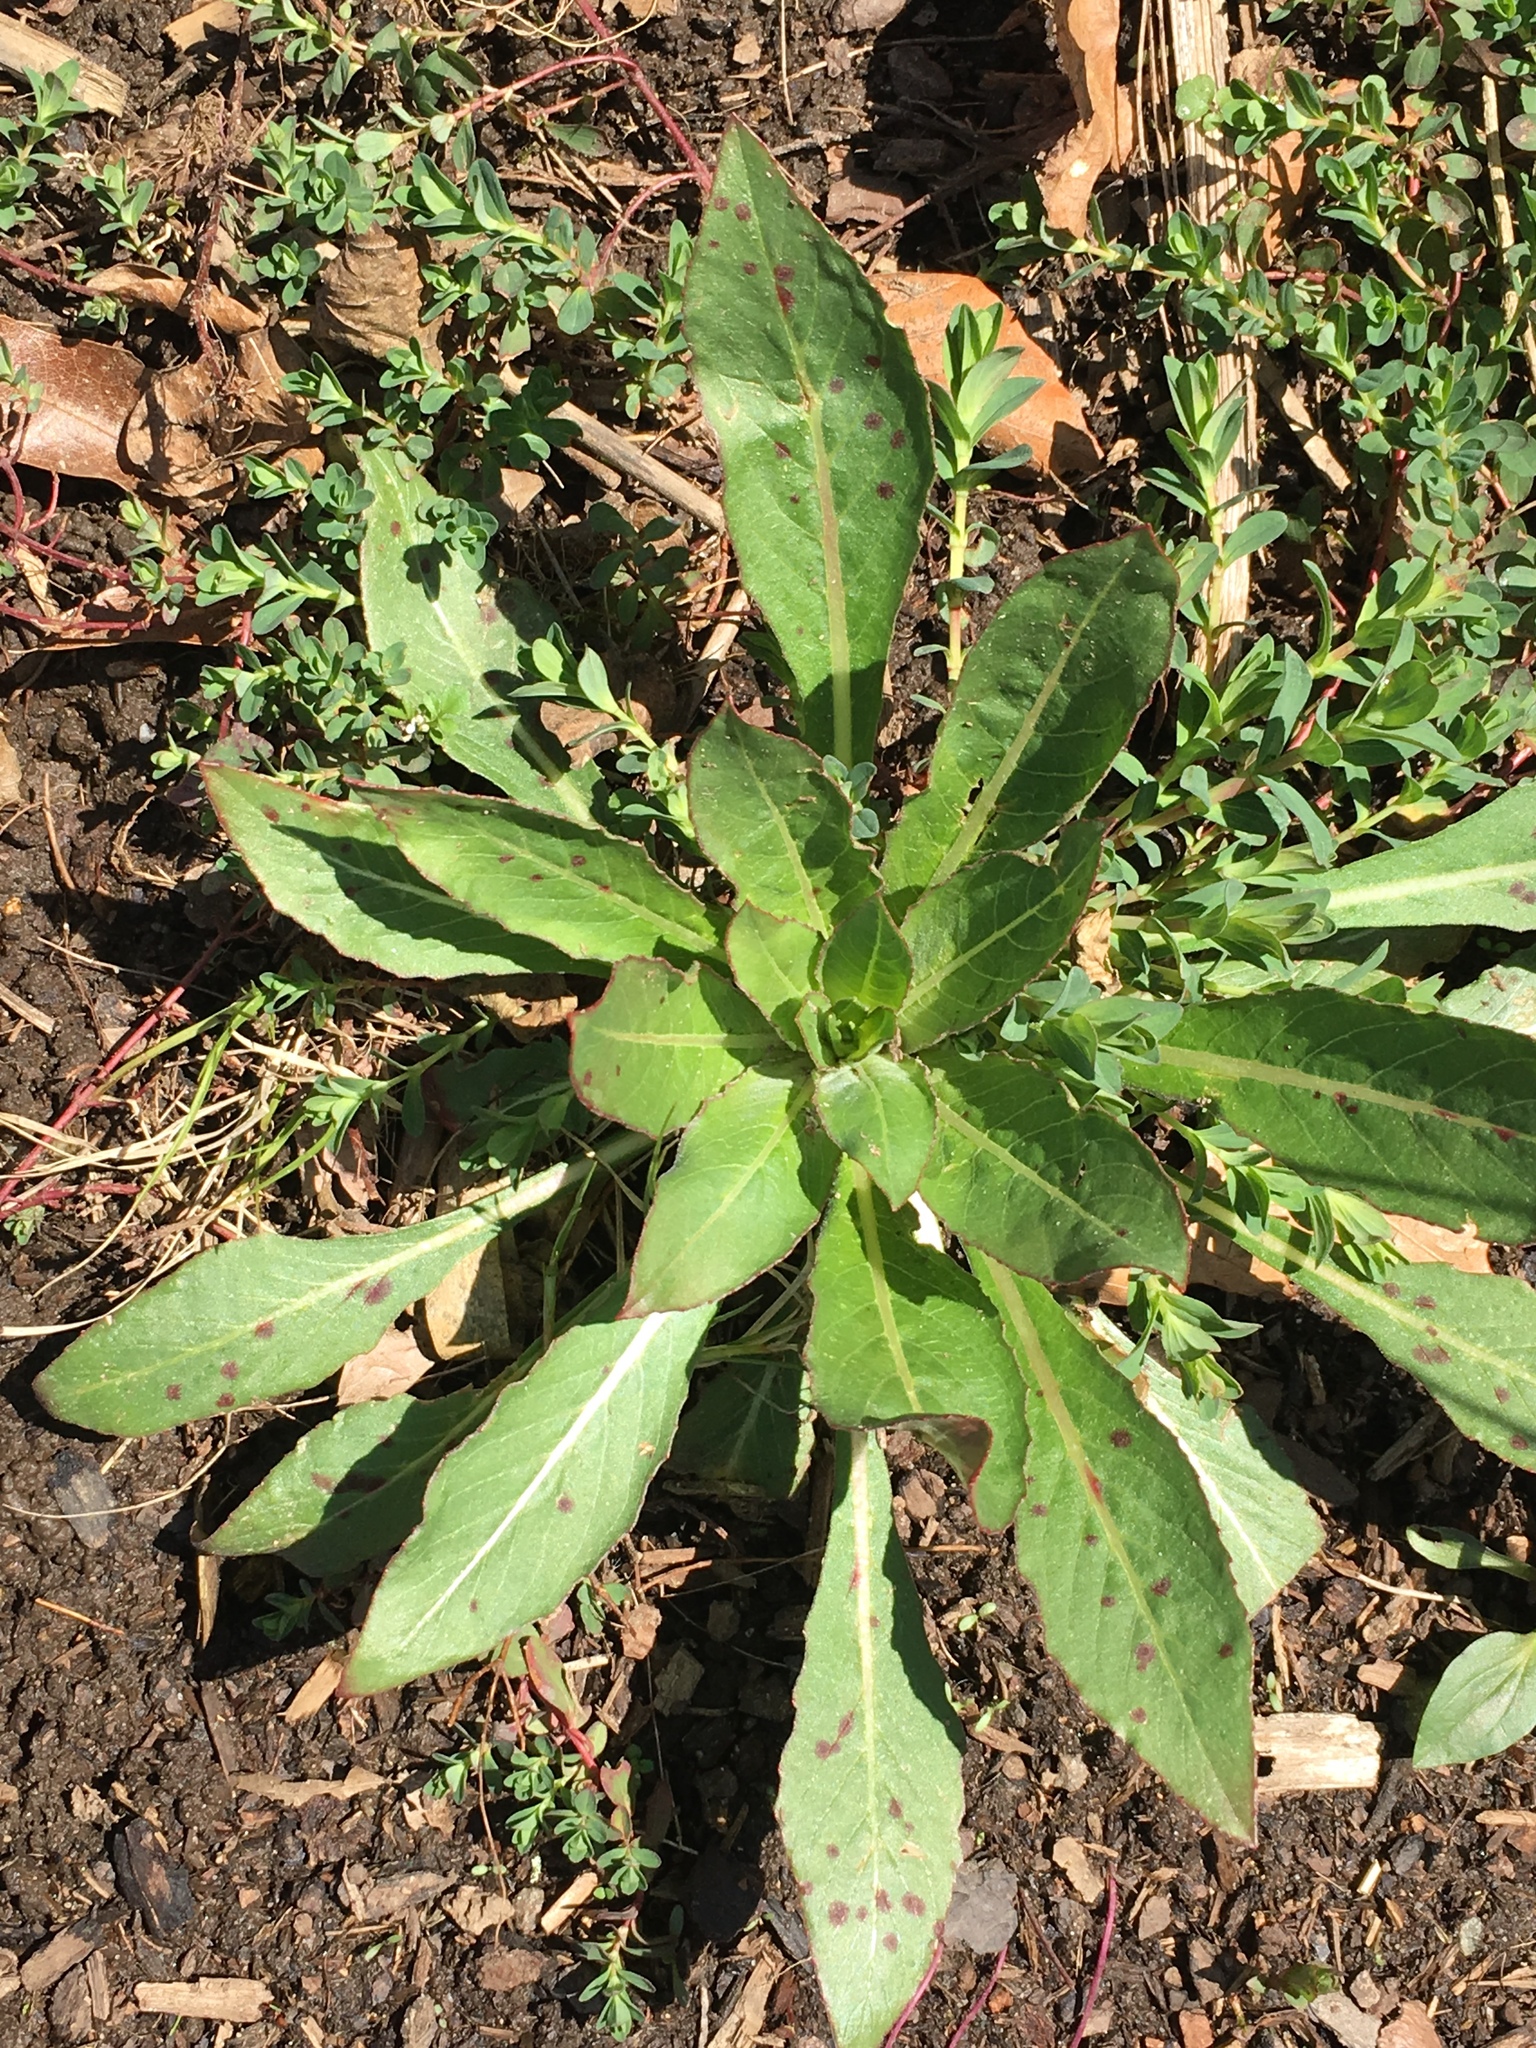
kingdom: Plantae
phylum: Tracheophyta
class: Magnoliopsida
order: Myrtales
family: Onagraceae
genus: Oenothera
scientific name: Oenothera biennis
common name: Common evening-primrose
